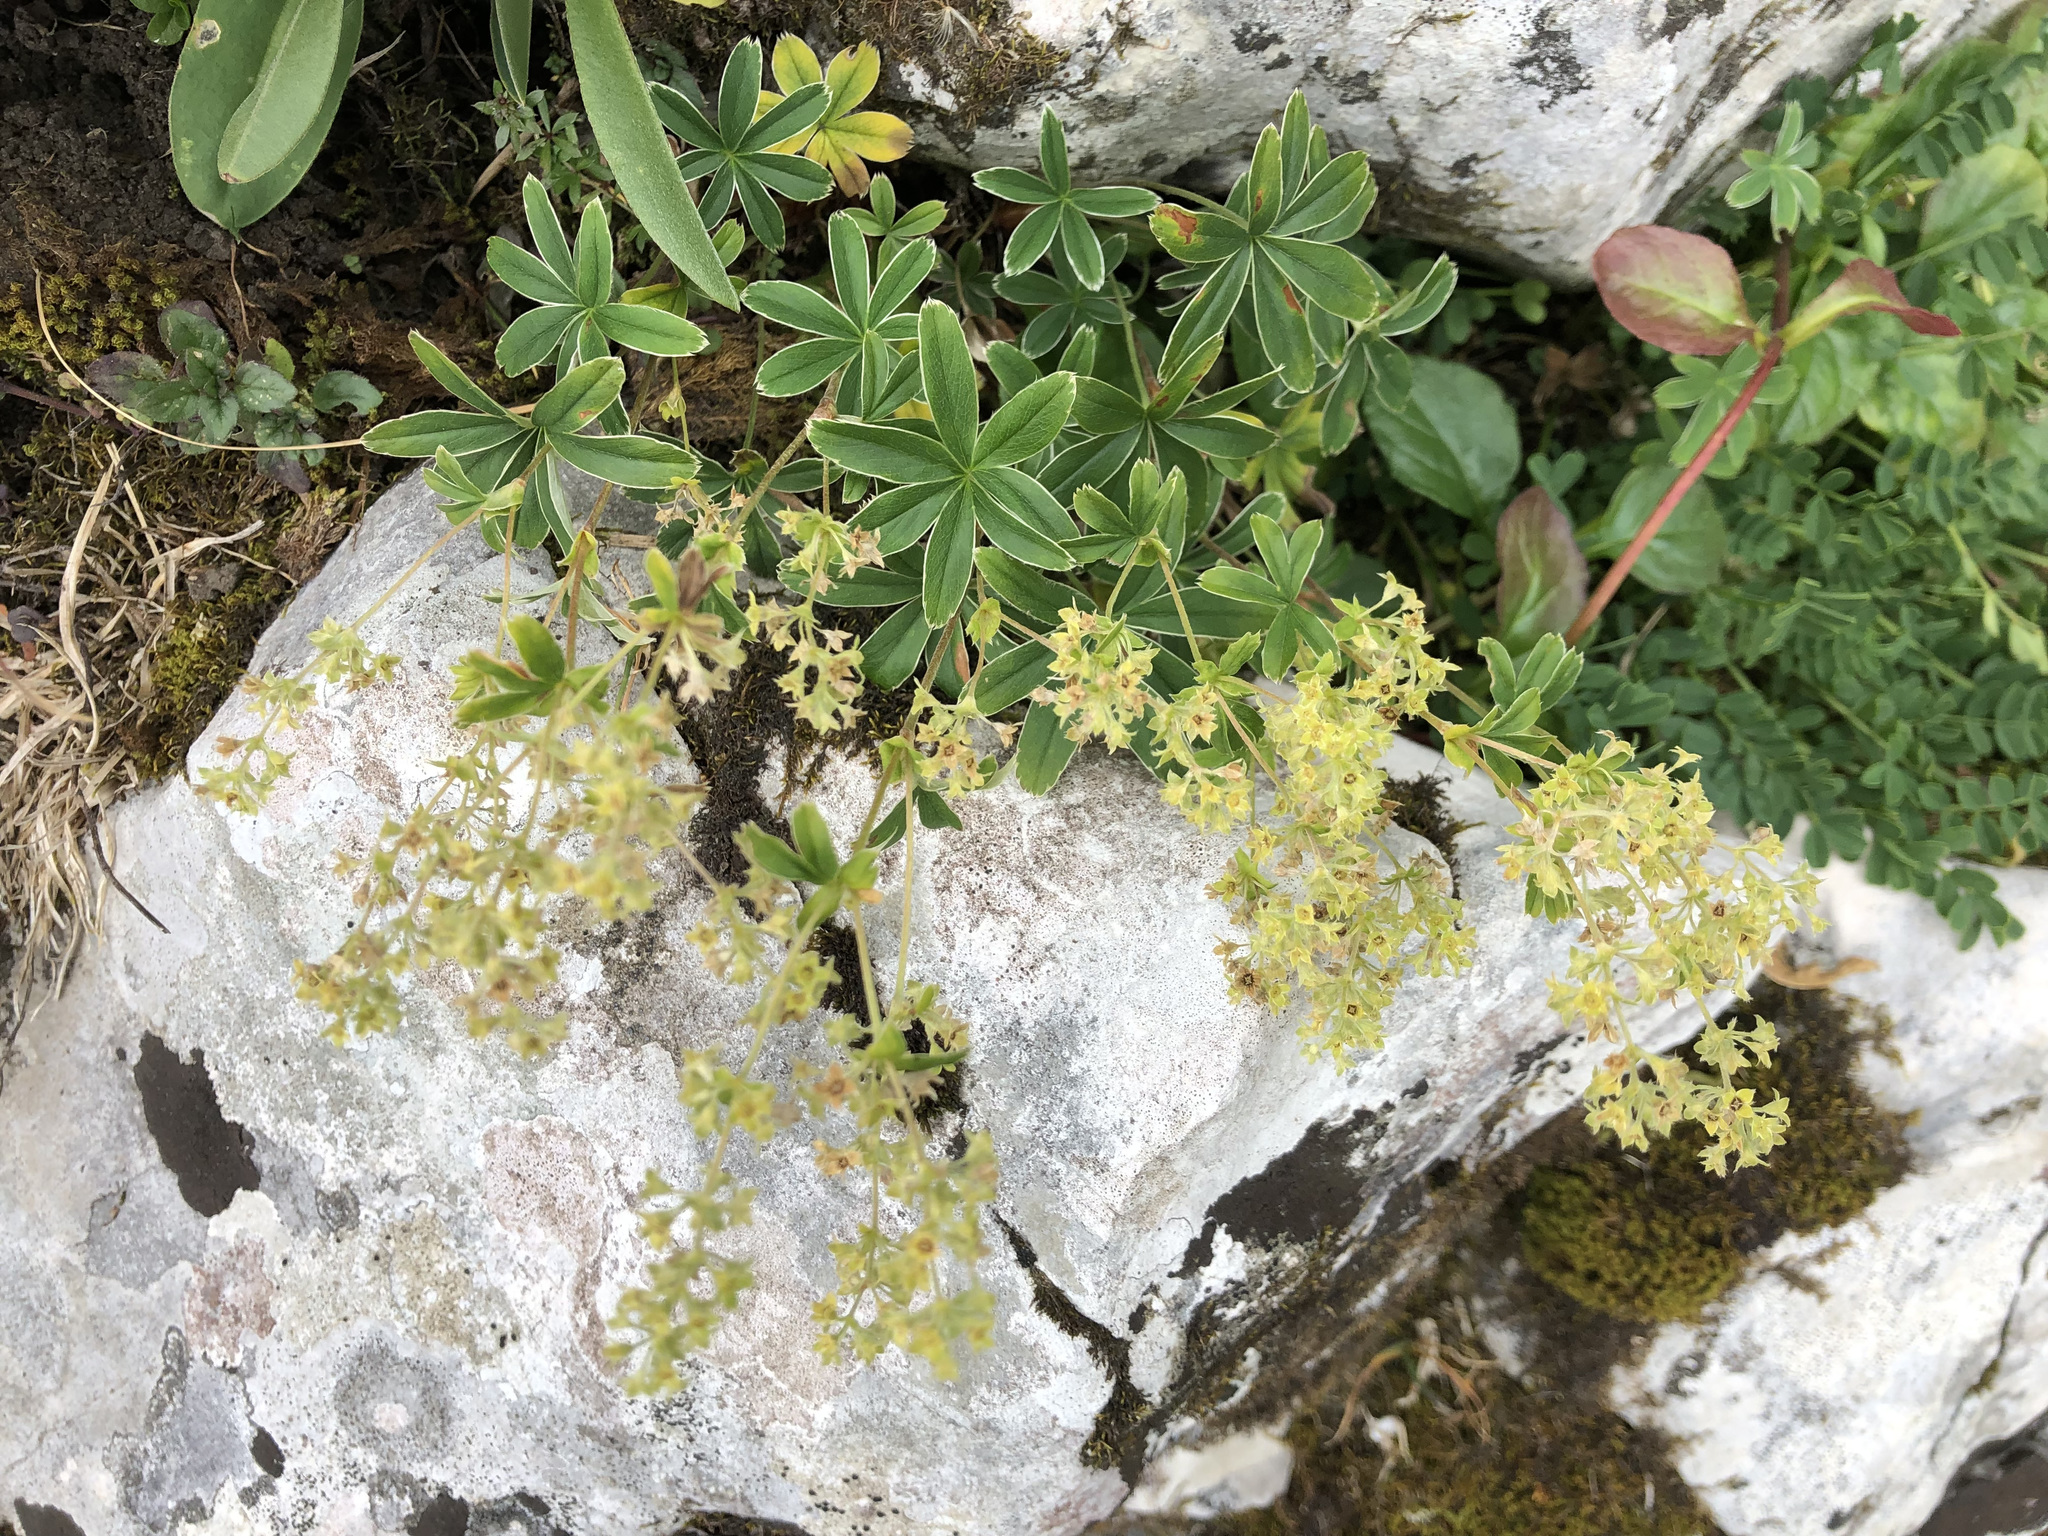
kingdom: Plantae
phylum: Tracheophyta
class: Magnoliopsida
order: Rosales
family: Rosaceae
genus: Alchemilla
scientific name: Alchemilla alpigena
